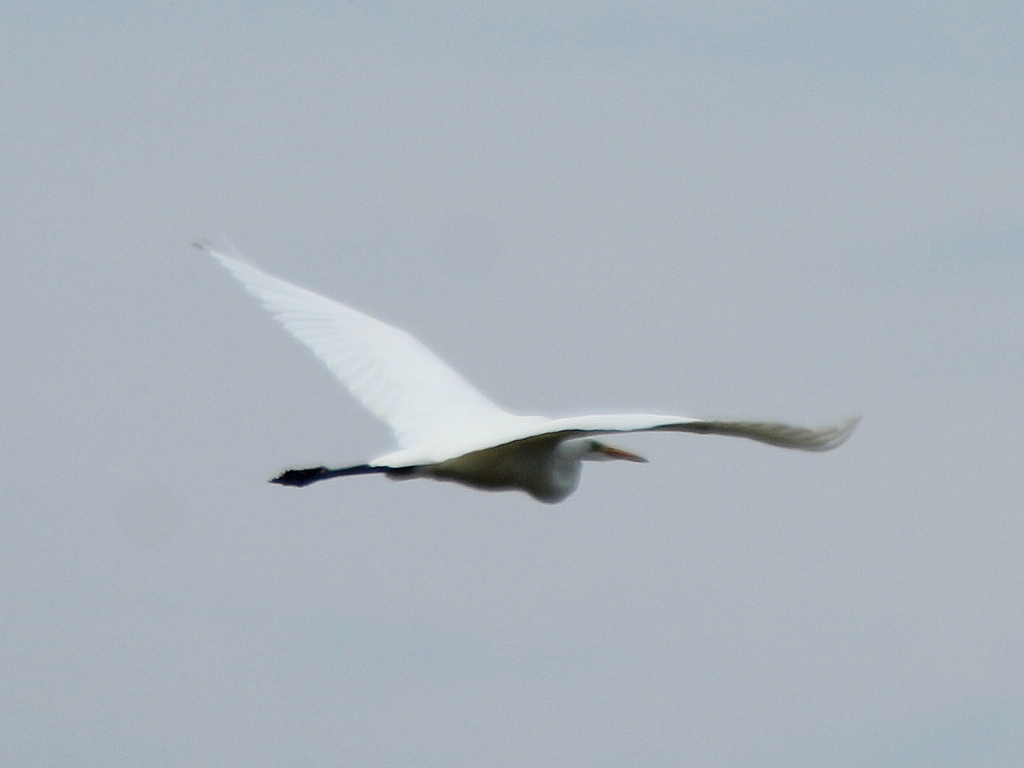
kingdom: Animalia
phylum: Chordata
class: Aves
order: Pelecaniformes
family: Ardeidae
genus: Ardea
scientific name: Ardea alba
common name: Great egret
